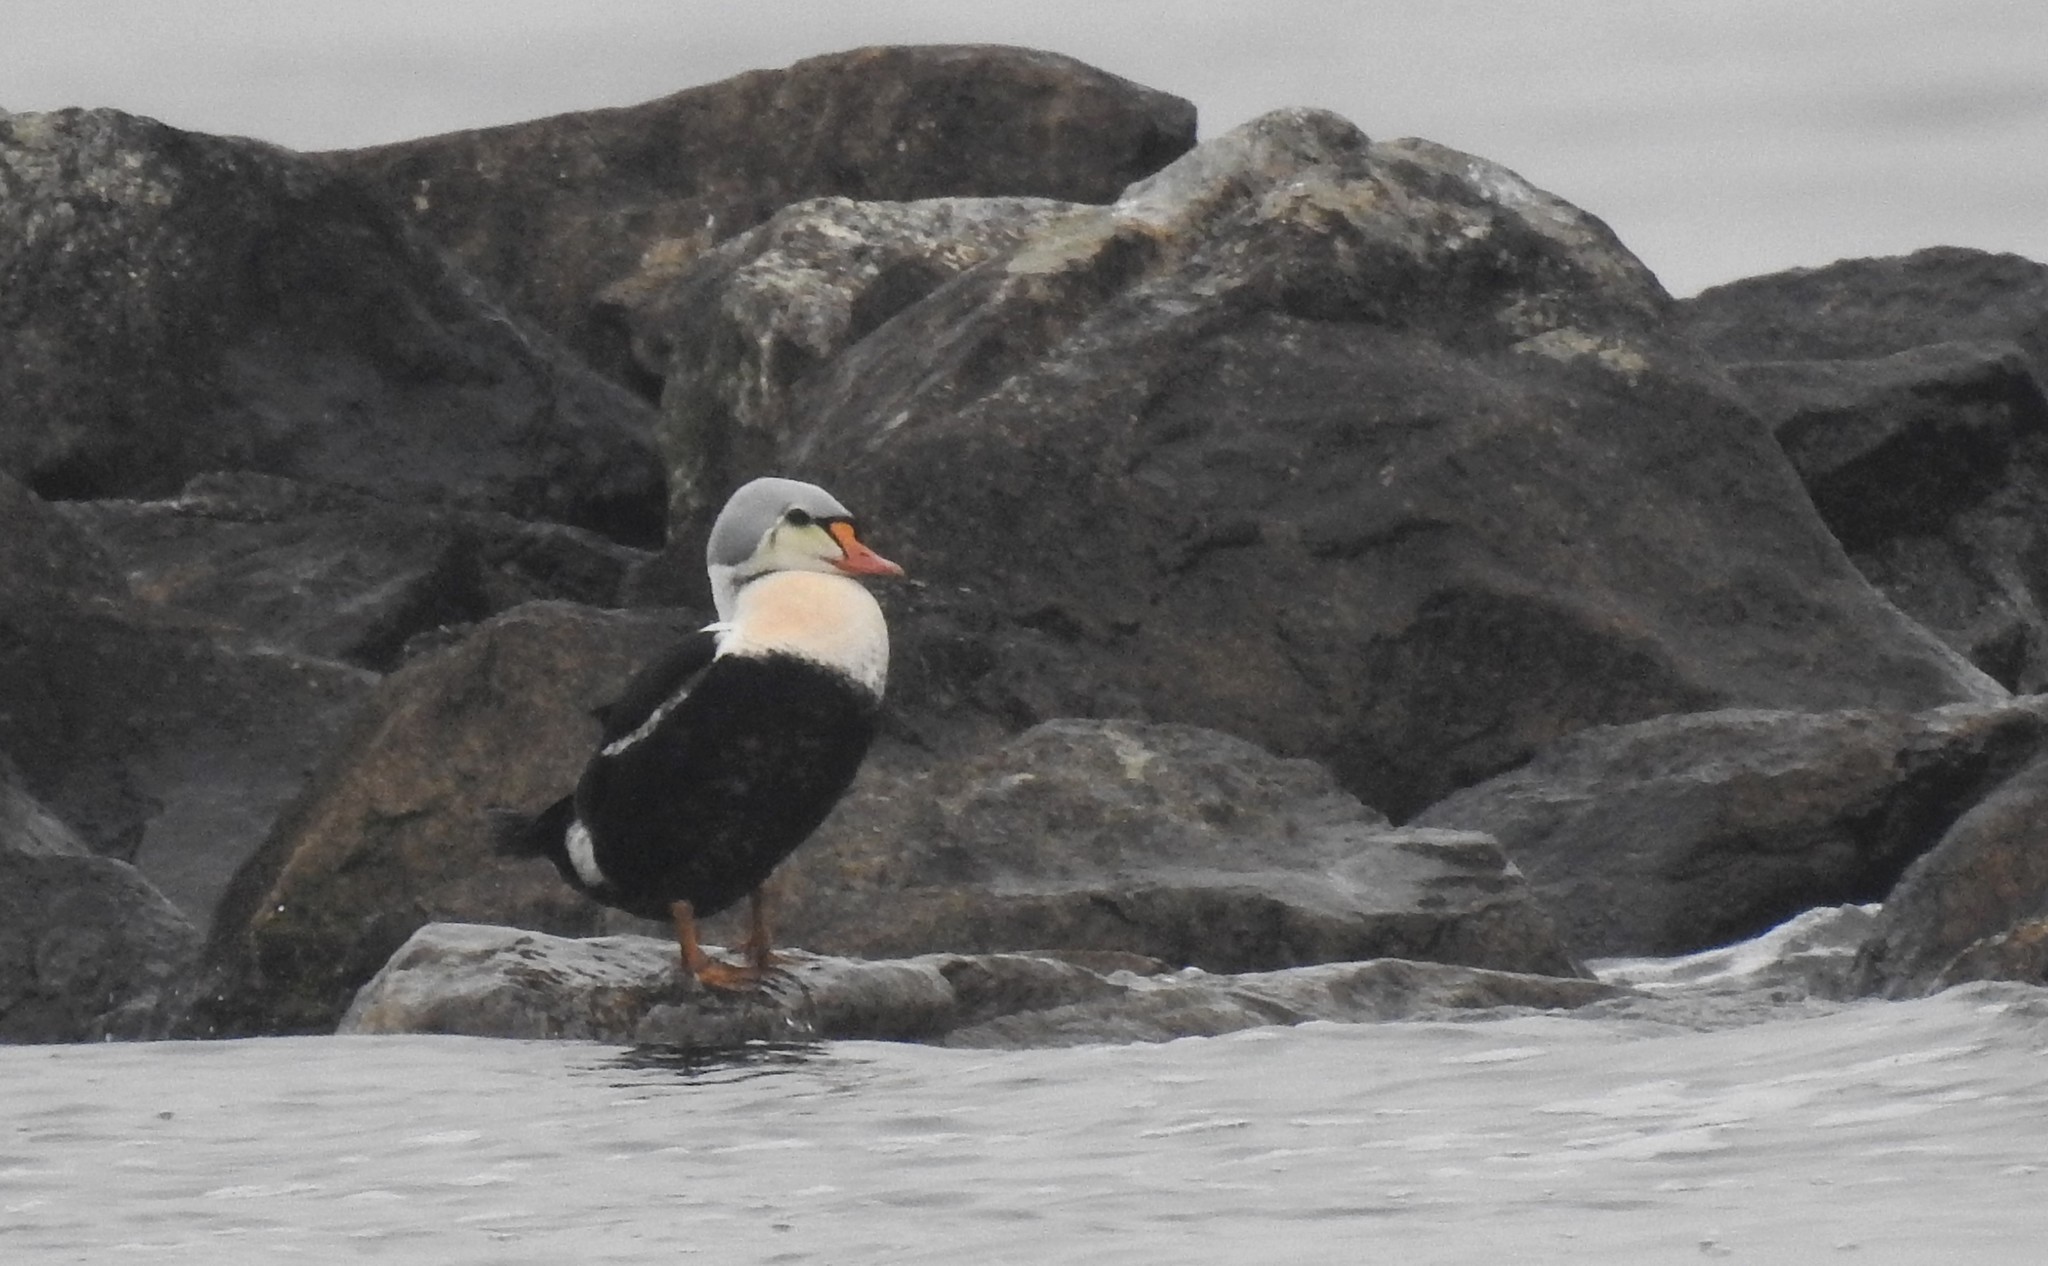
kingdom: Animalia
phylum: Chordata
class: Aves
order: Anseriformes
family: Anatidae
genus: Somateria
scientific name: Somateria spectabilis
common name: King eider
